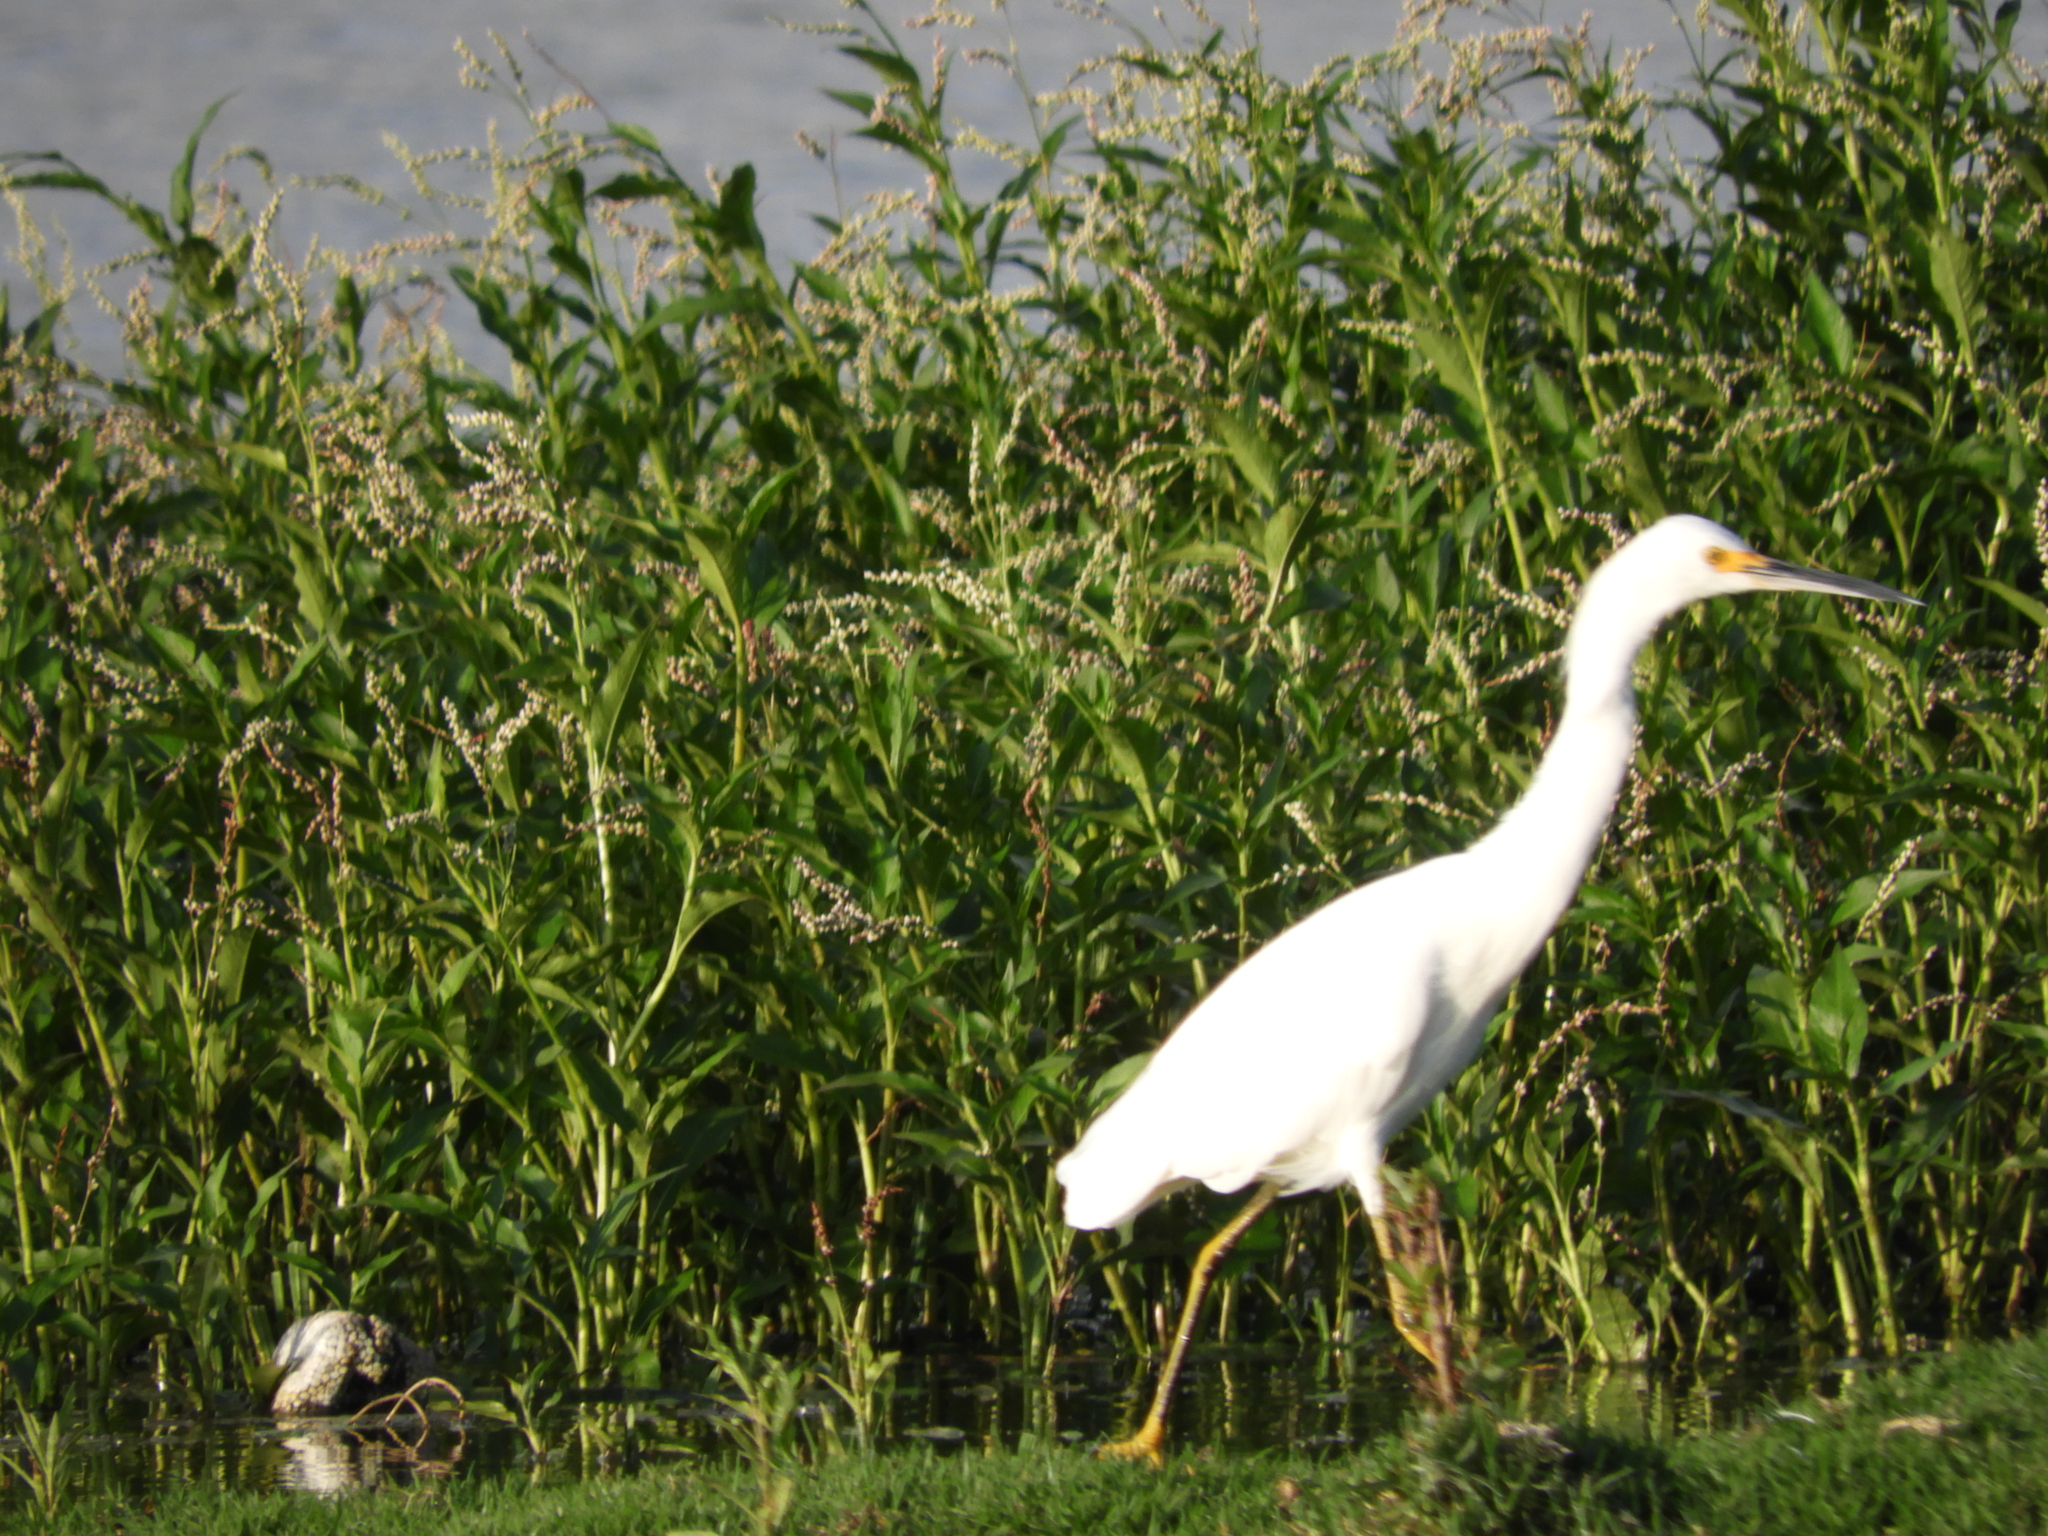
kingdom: Animalia
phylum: Chordata
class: Aves
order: Pelecaniformes
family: Ardeidae
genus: Egretta
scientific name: Egretta thula
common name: Snowy egret
